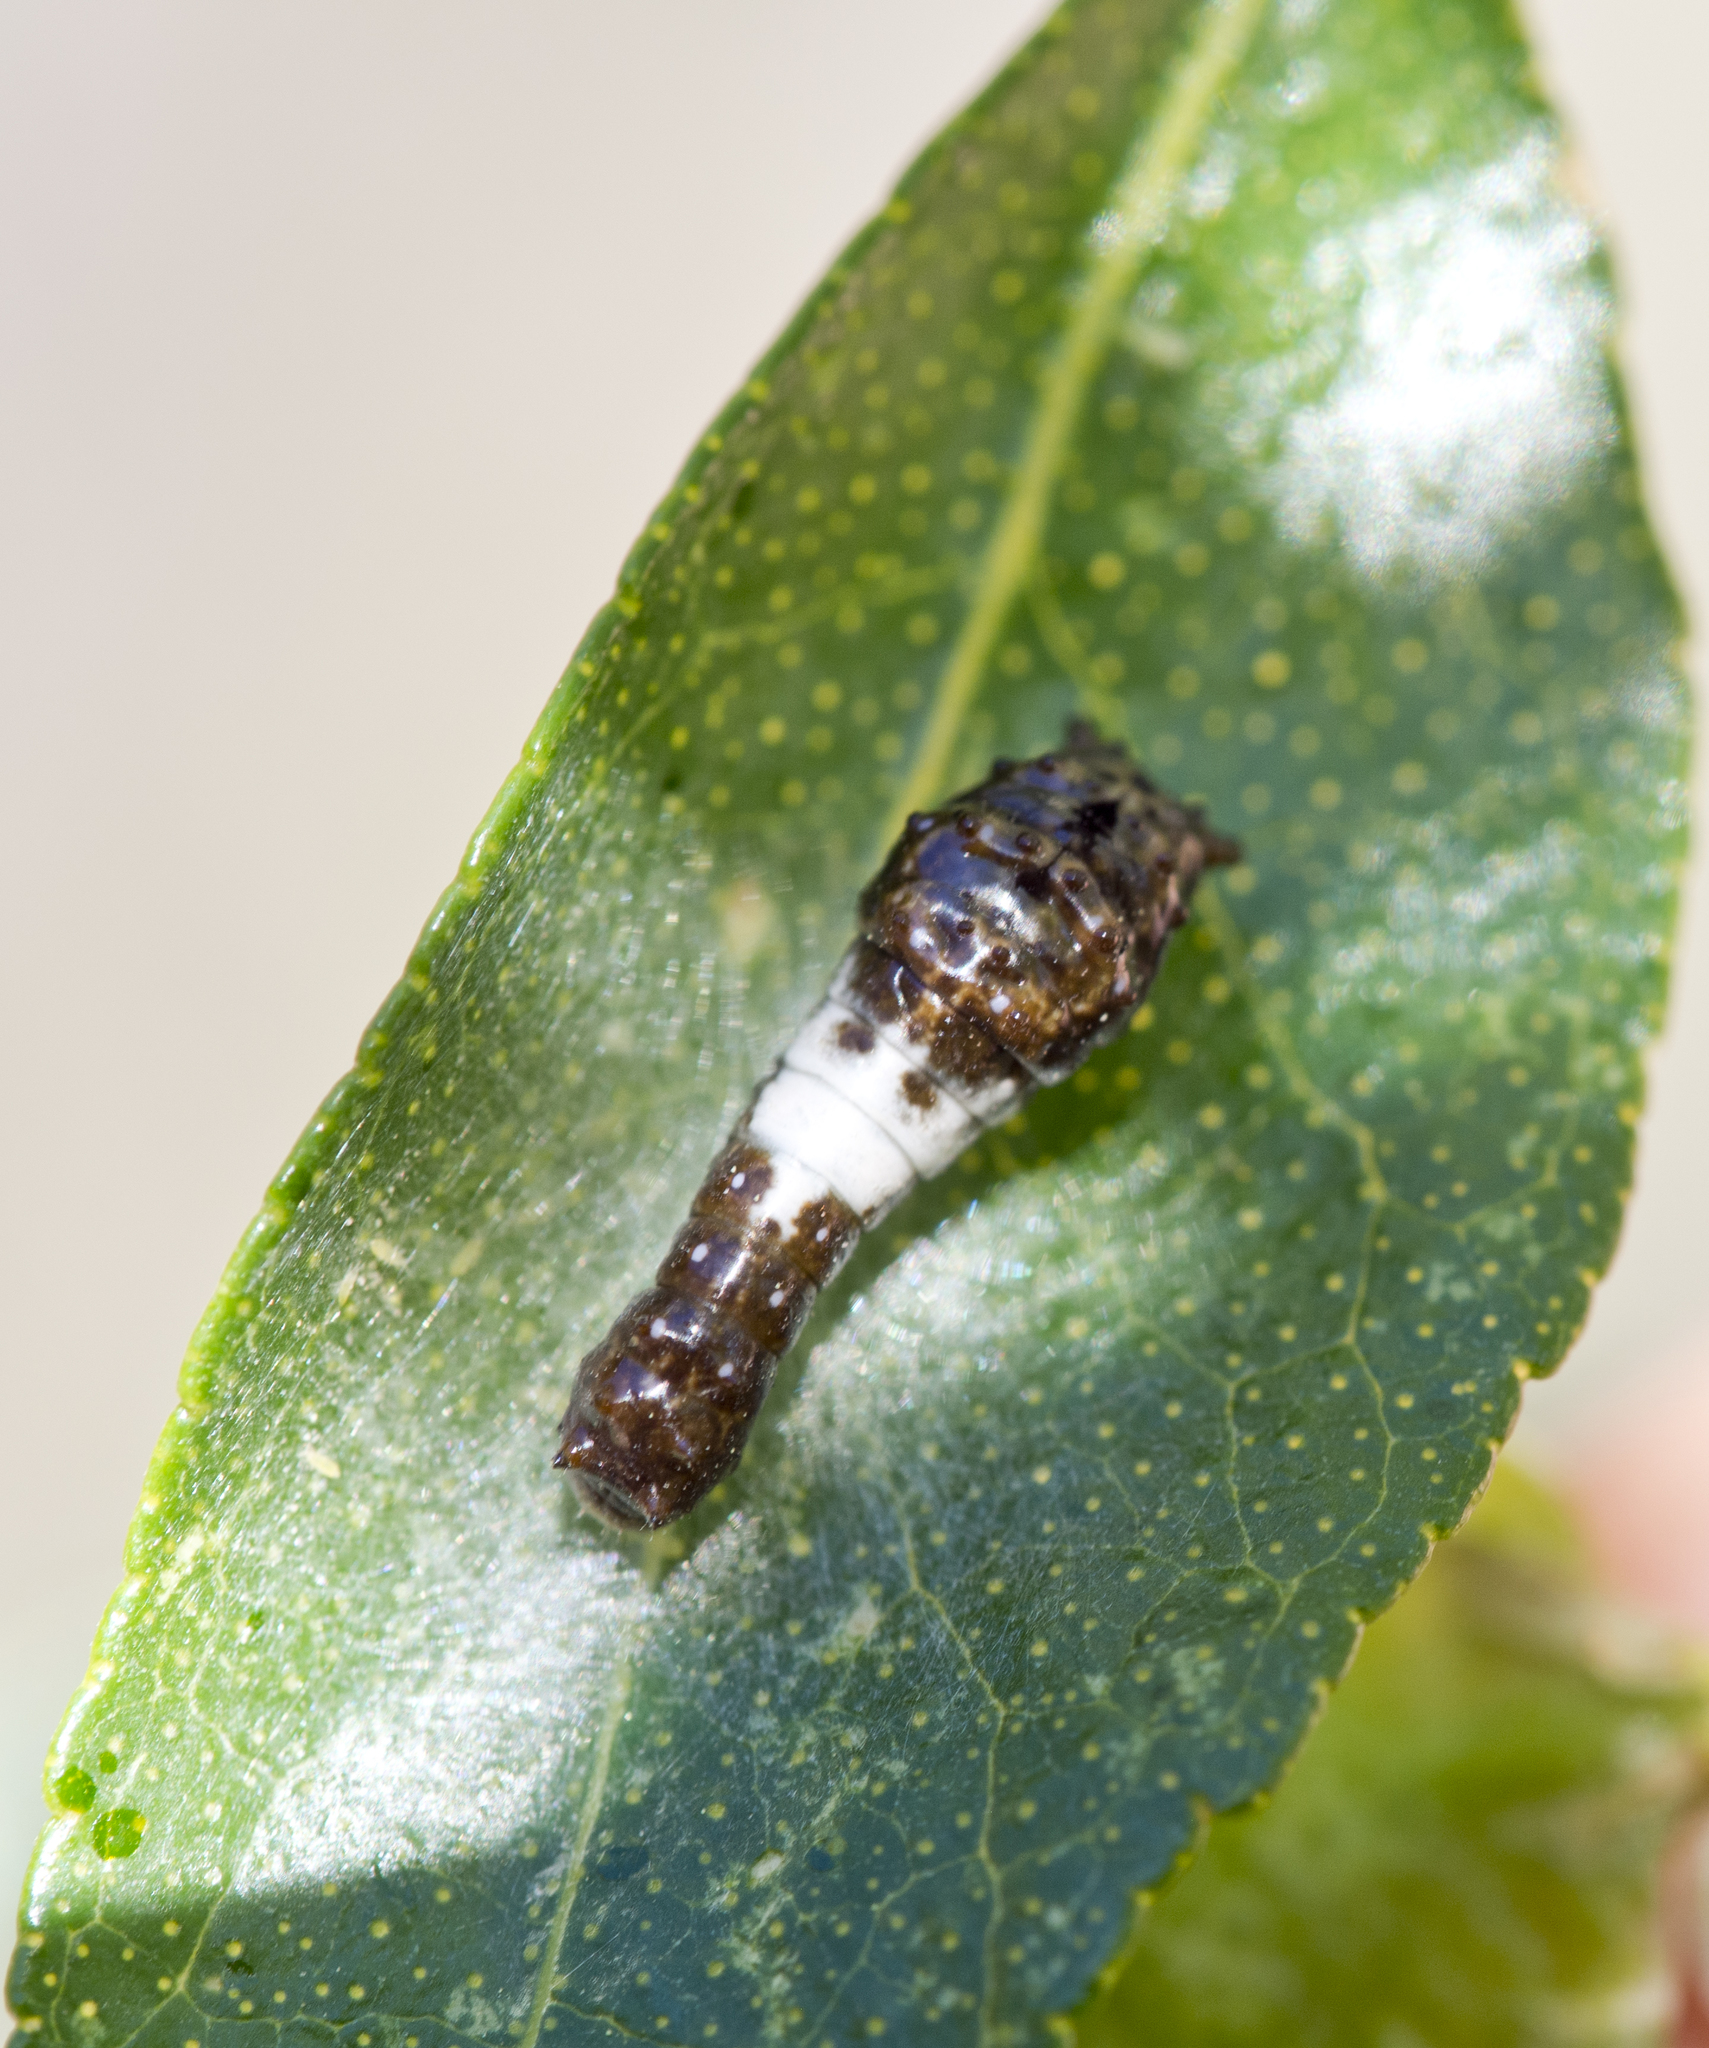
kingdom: Animalia
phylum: Arthropoda
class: Insecta
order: Lepidoptera
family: Papilionidae
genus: Papilio
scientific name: Papilio multicaudata
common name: Two-tailed tiger swallowtail
